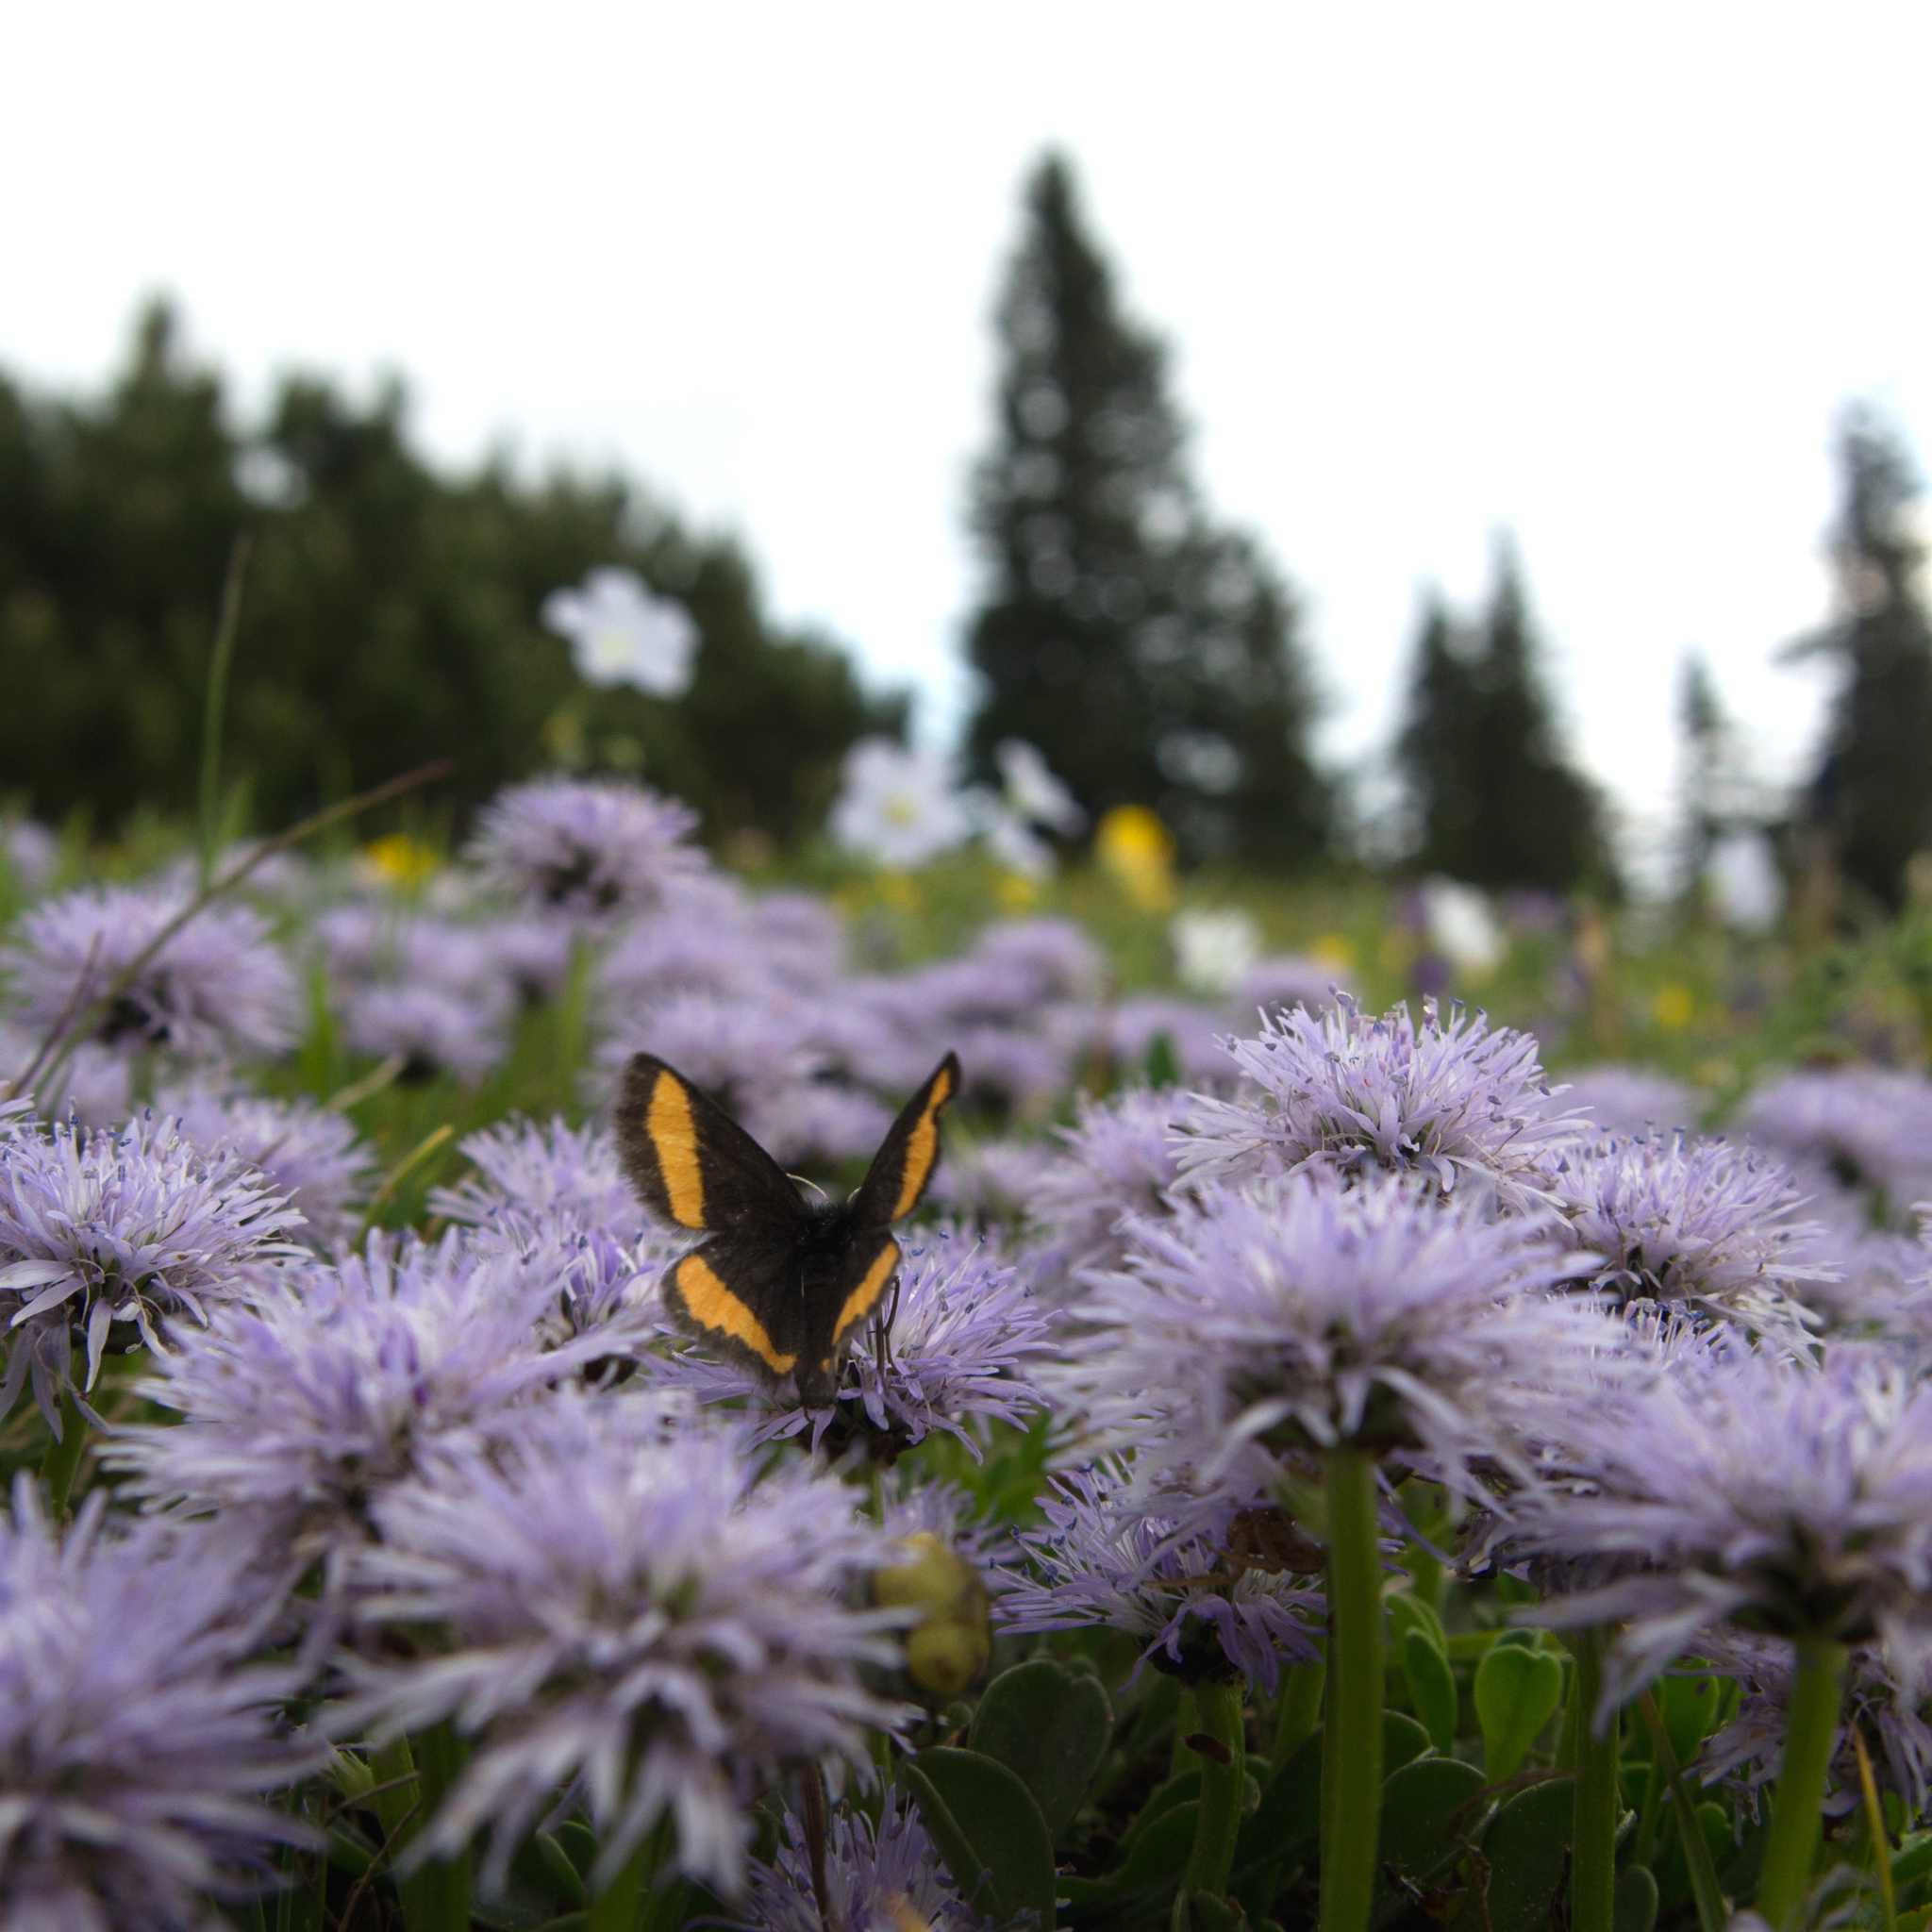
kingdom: Animalia
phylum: Arthropoda
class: Insecta
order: Lepidoptera
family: Geometridae
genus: Psodos
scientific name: Psodos quadrifaria
